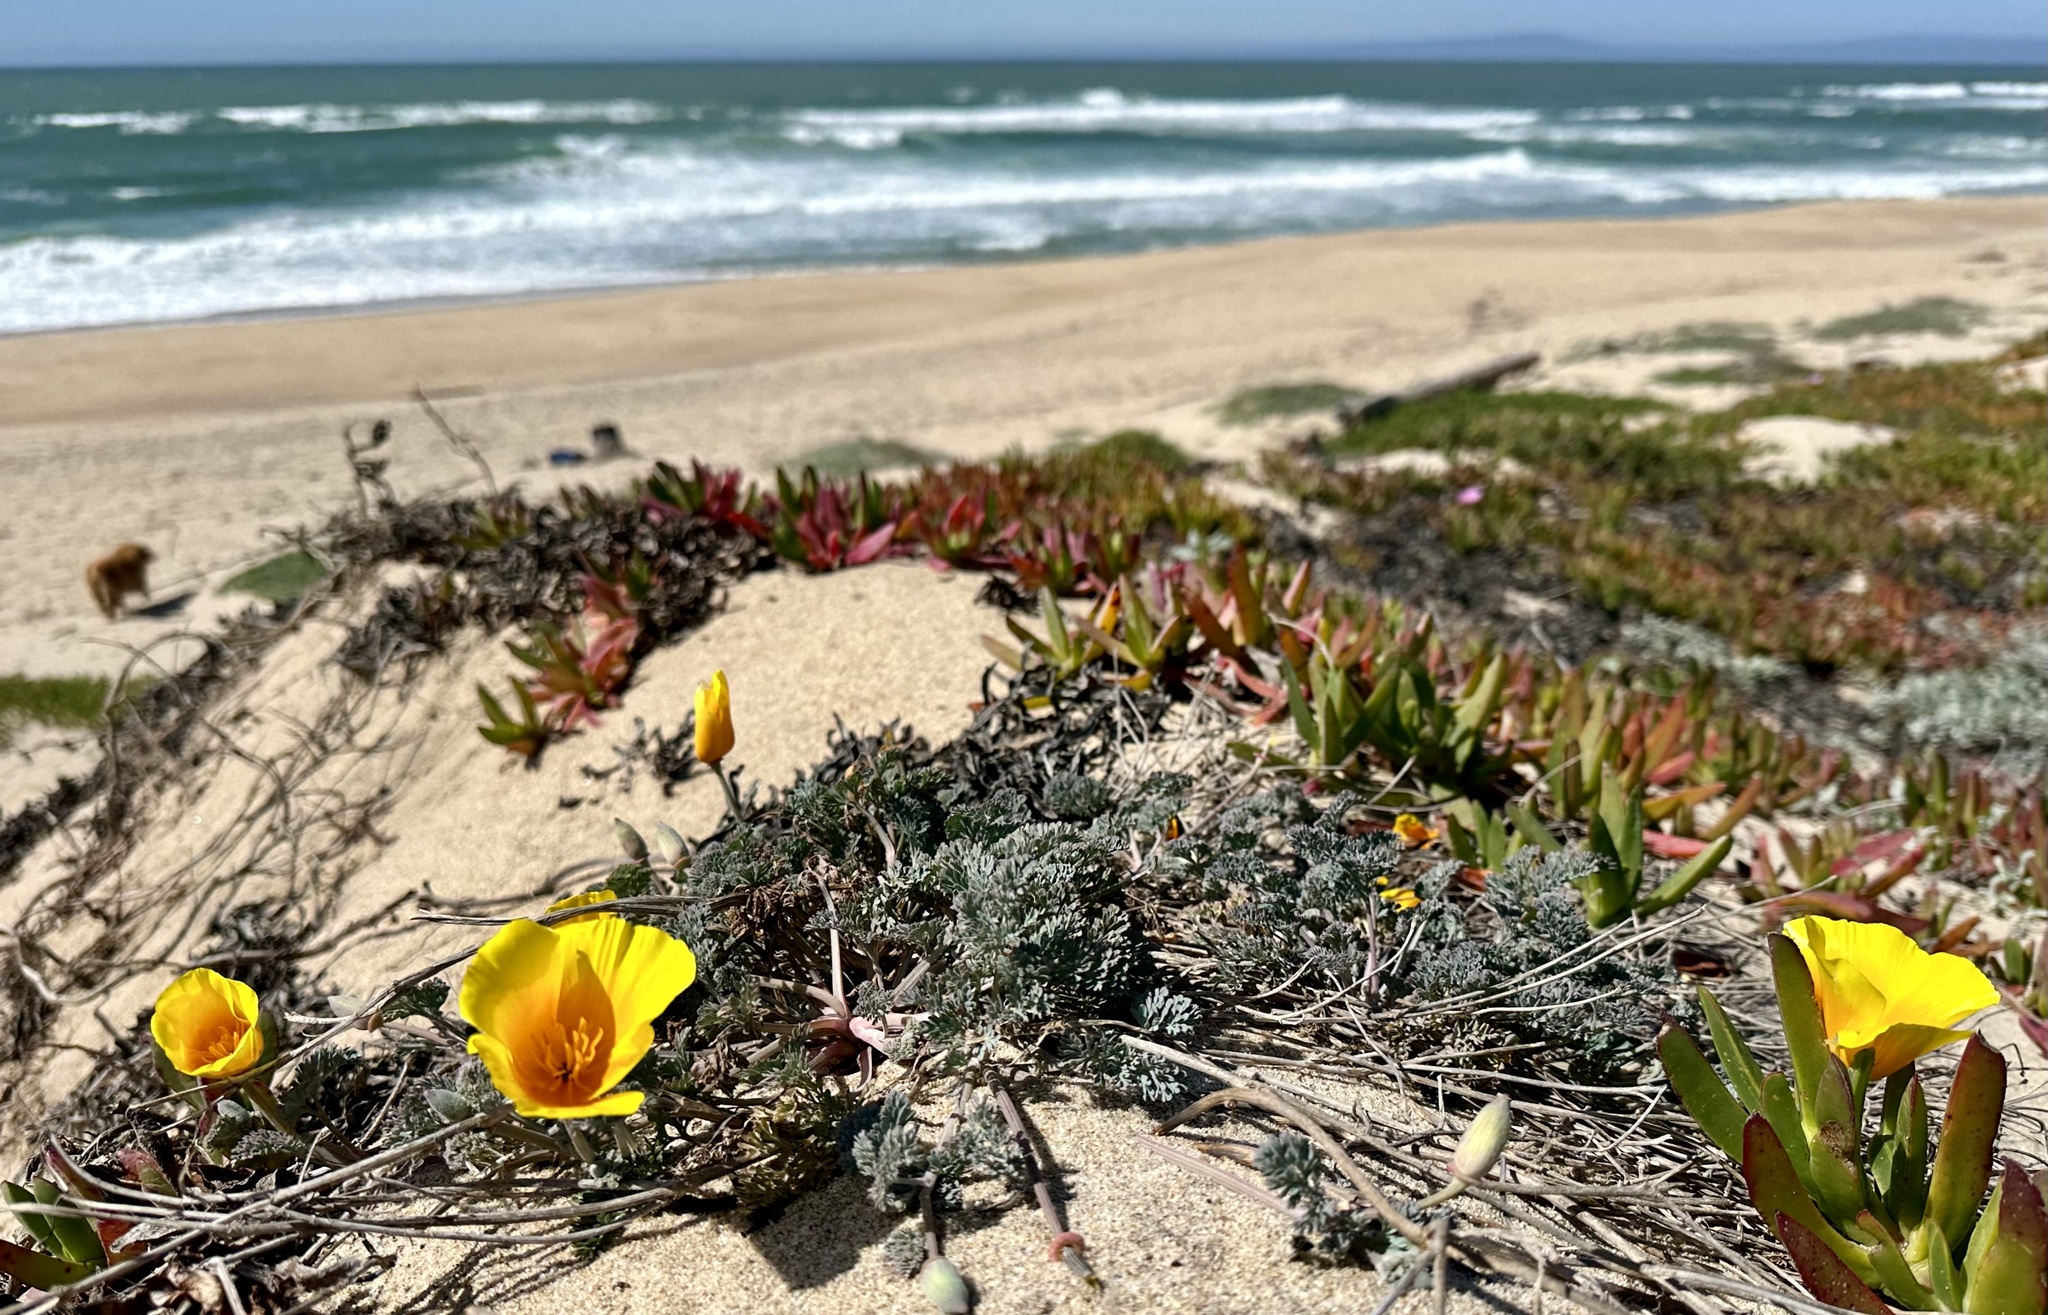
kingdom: Plantae
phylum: Tracheophyta
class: Magnoliopsida
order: Ranunculales
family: Papaveraceae
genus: Eschscholzia
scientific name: Eschscholzia californica
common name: California poppy
